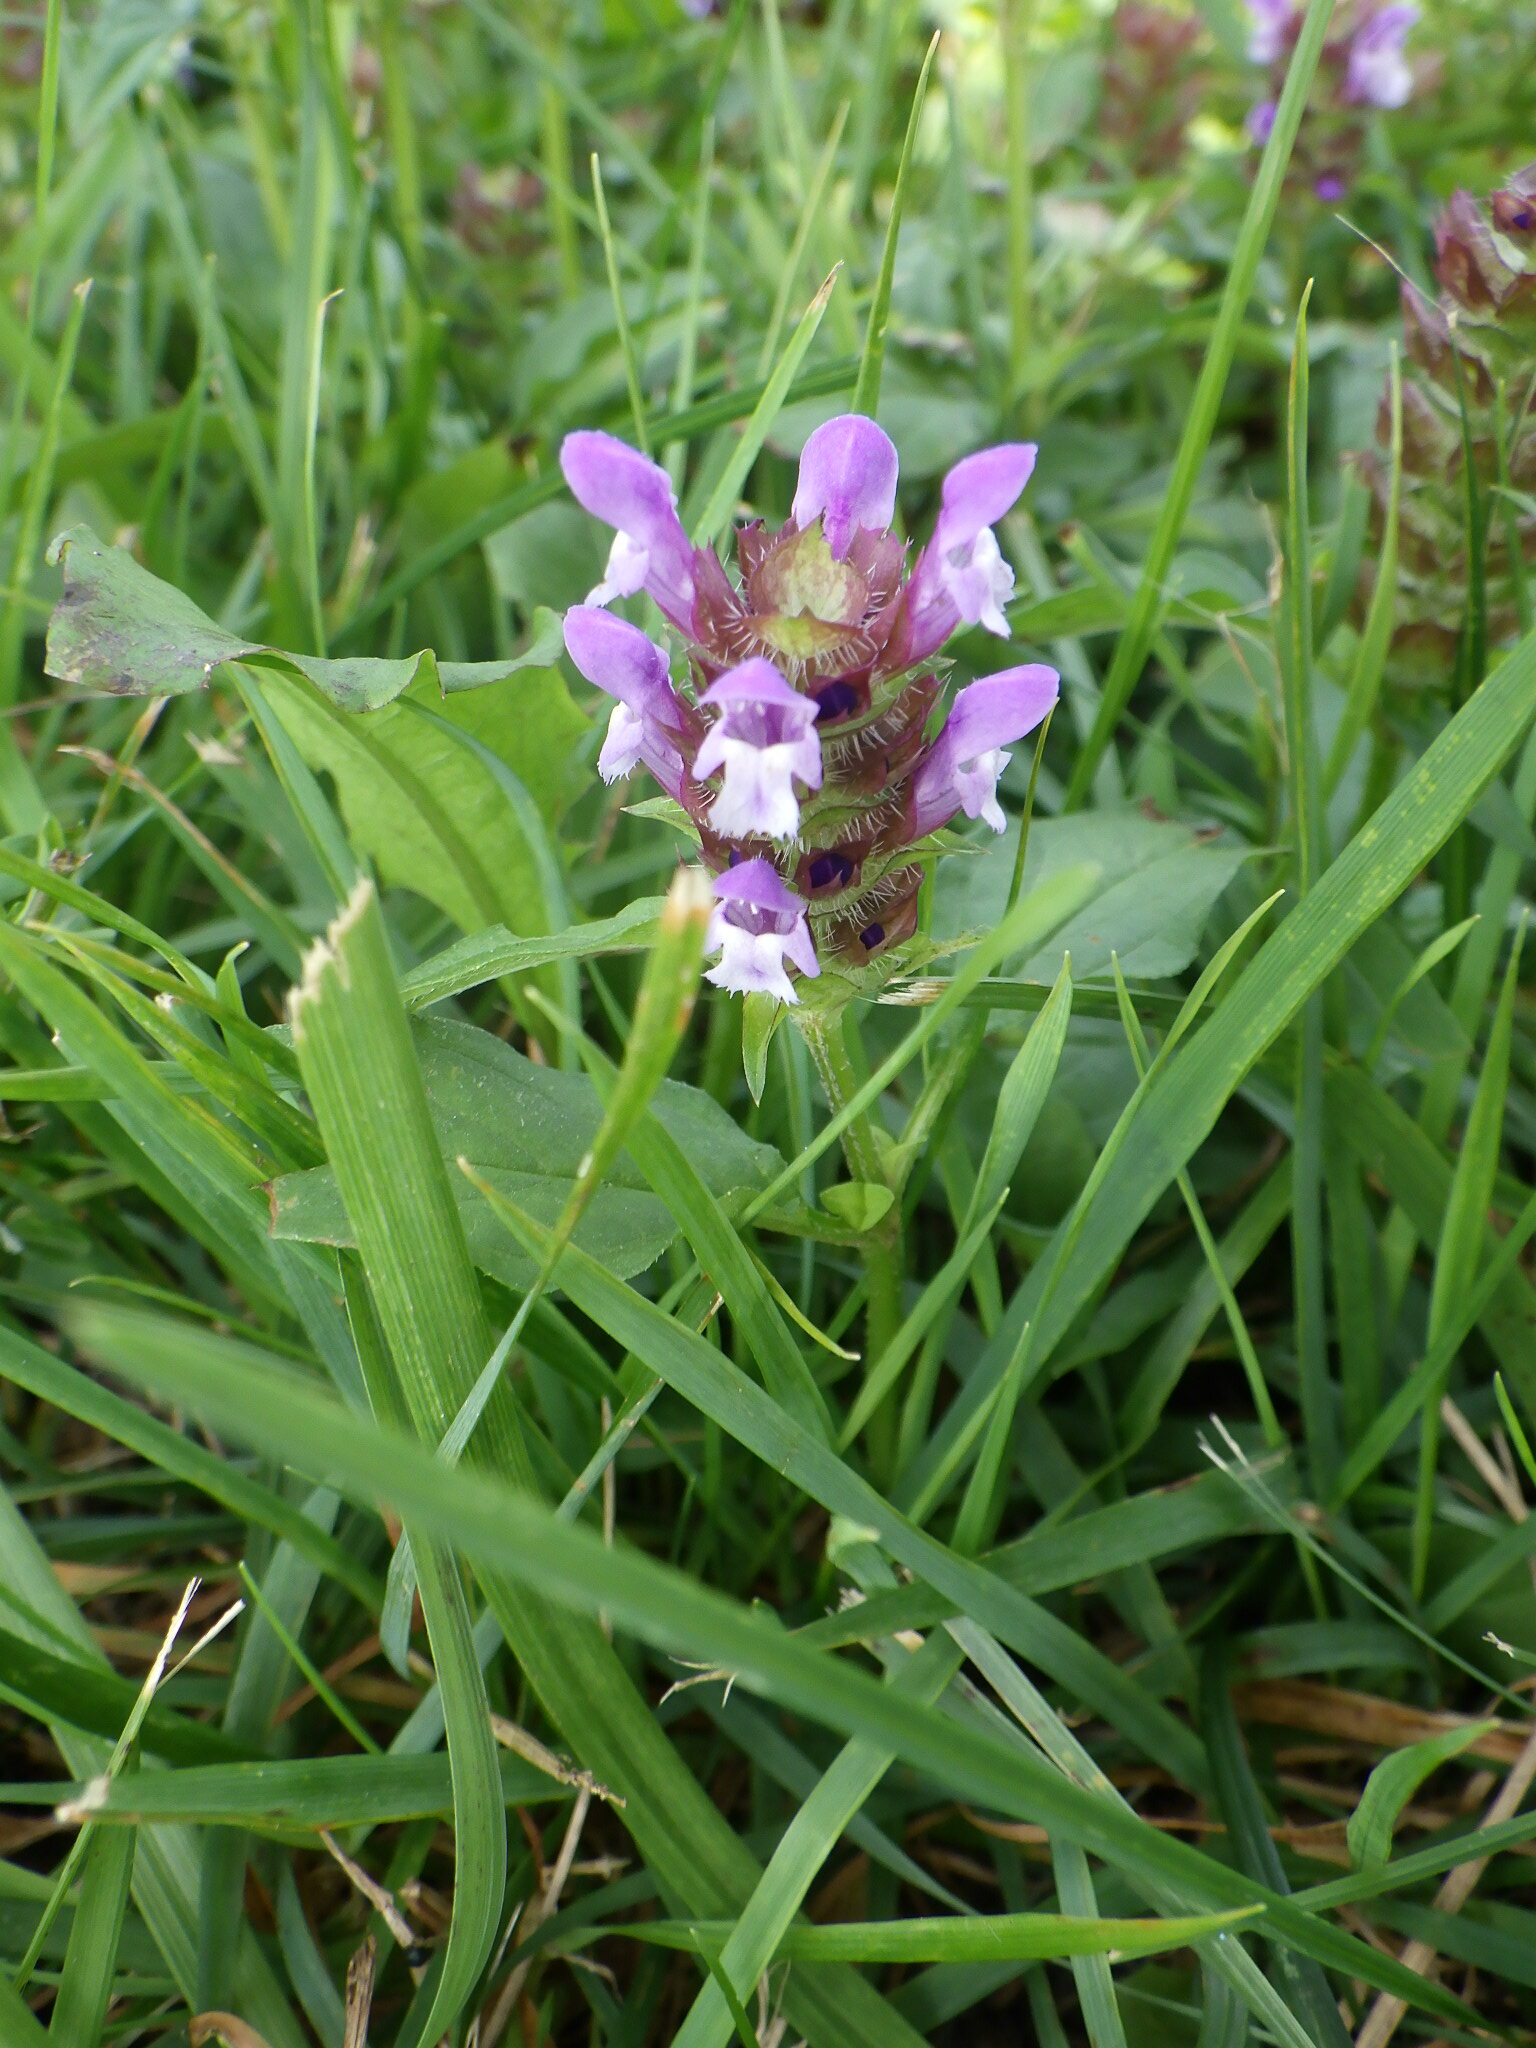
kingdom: Plantae
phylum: Tracheophyta
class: Magnoliopsida
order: Lamiales
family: Lamiaceae
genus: Prunella
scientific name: Prunella vulgaris
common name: Heal-all
